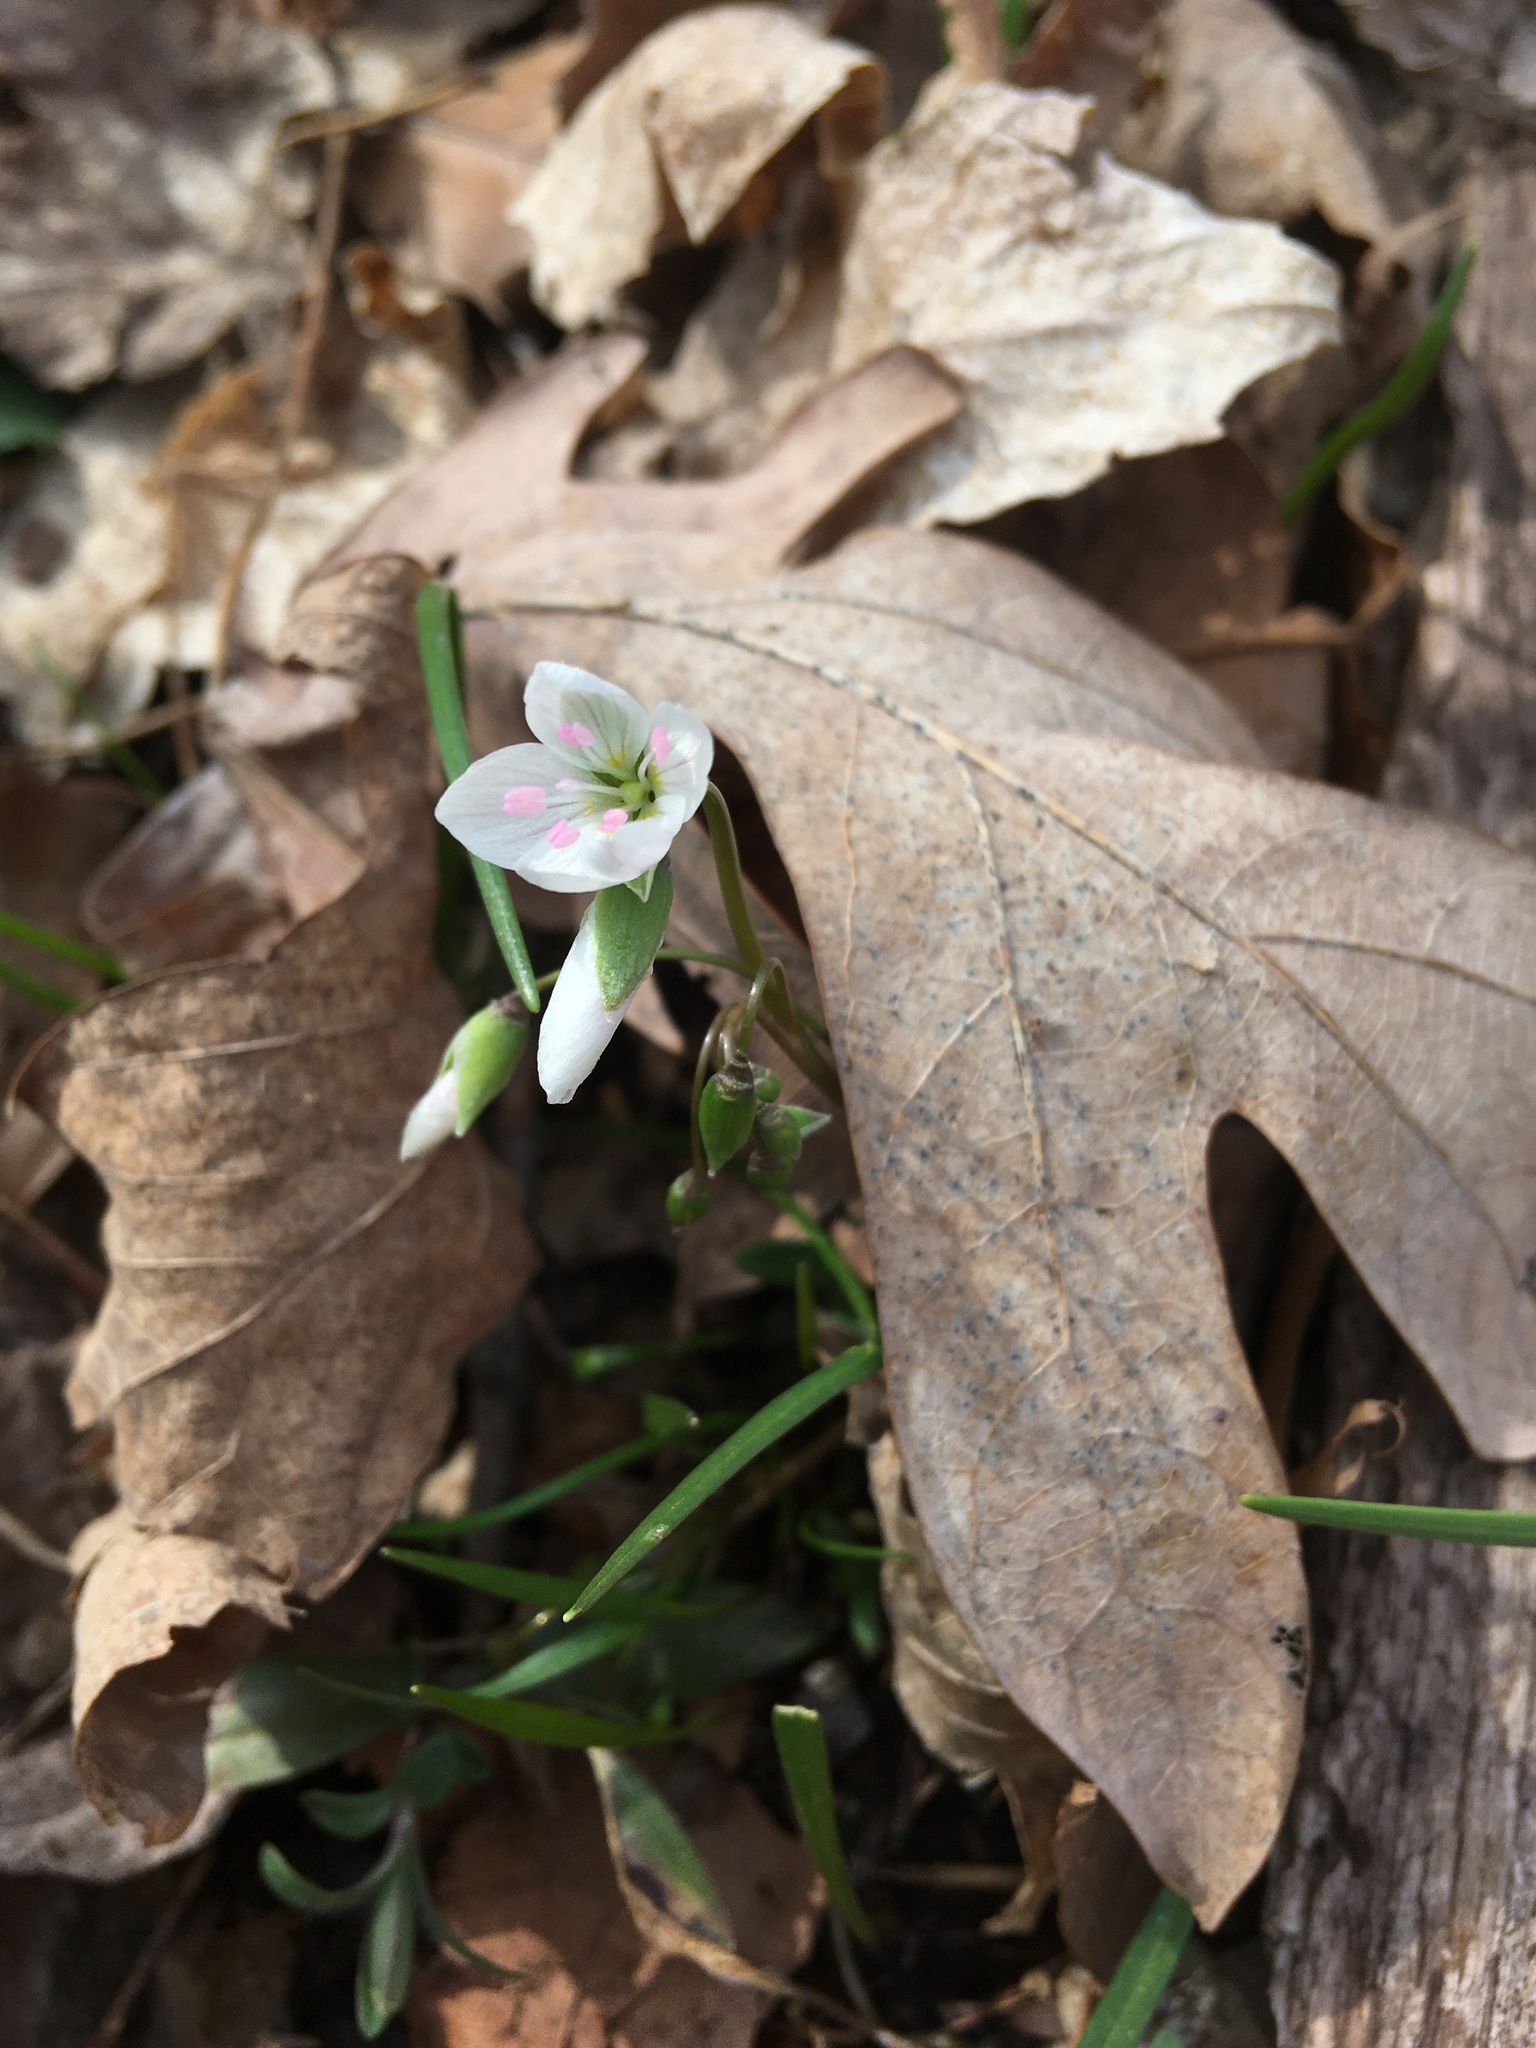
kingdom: Plantae
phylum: Tracheophyta
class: Magnoliopsida
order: Caryophyllales
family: Montiaceae
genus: Claytonia
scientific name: Claytonia virginica
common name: Virginia springbeauty
